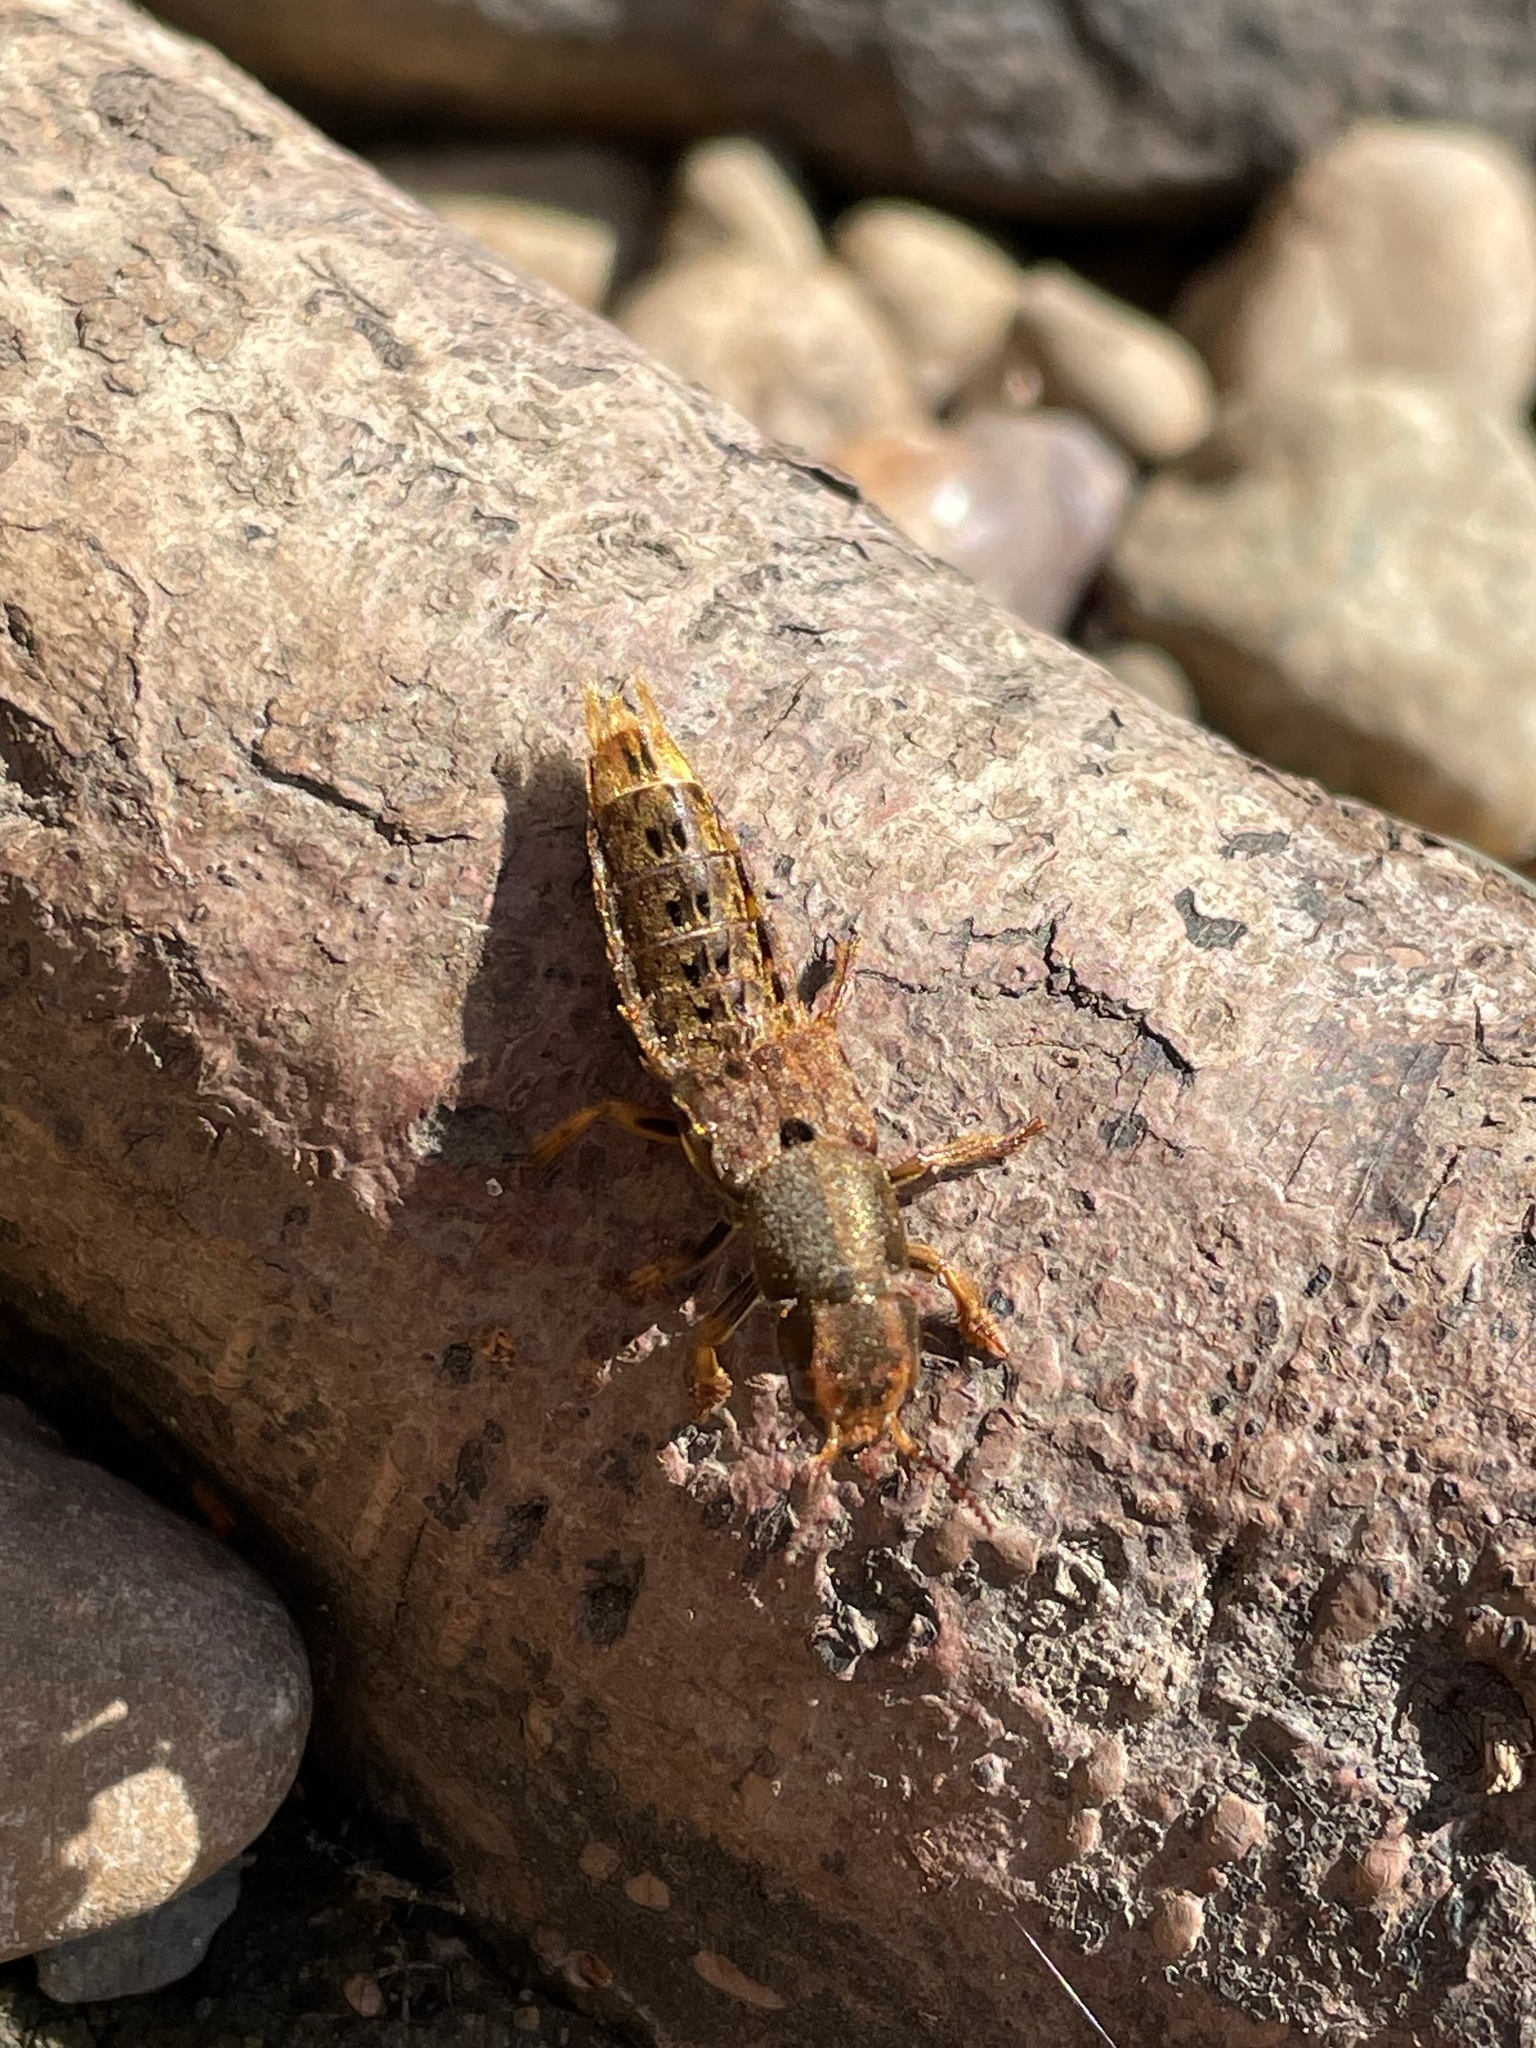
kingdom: Animalia
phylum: Arthropoda
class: Insecta
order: Coleoptera
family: Staphylinidae
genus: Platydracus
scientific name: Platydracus maculosus
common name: Brown rove beetle
